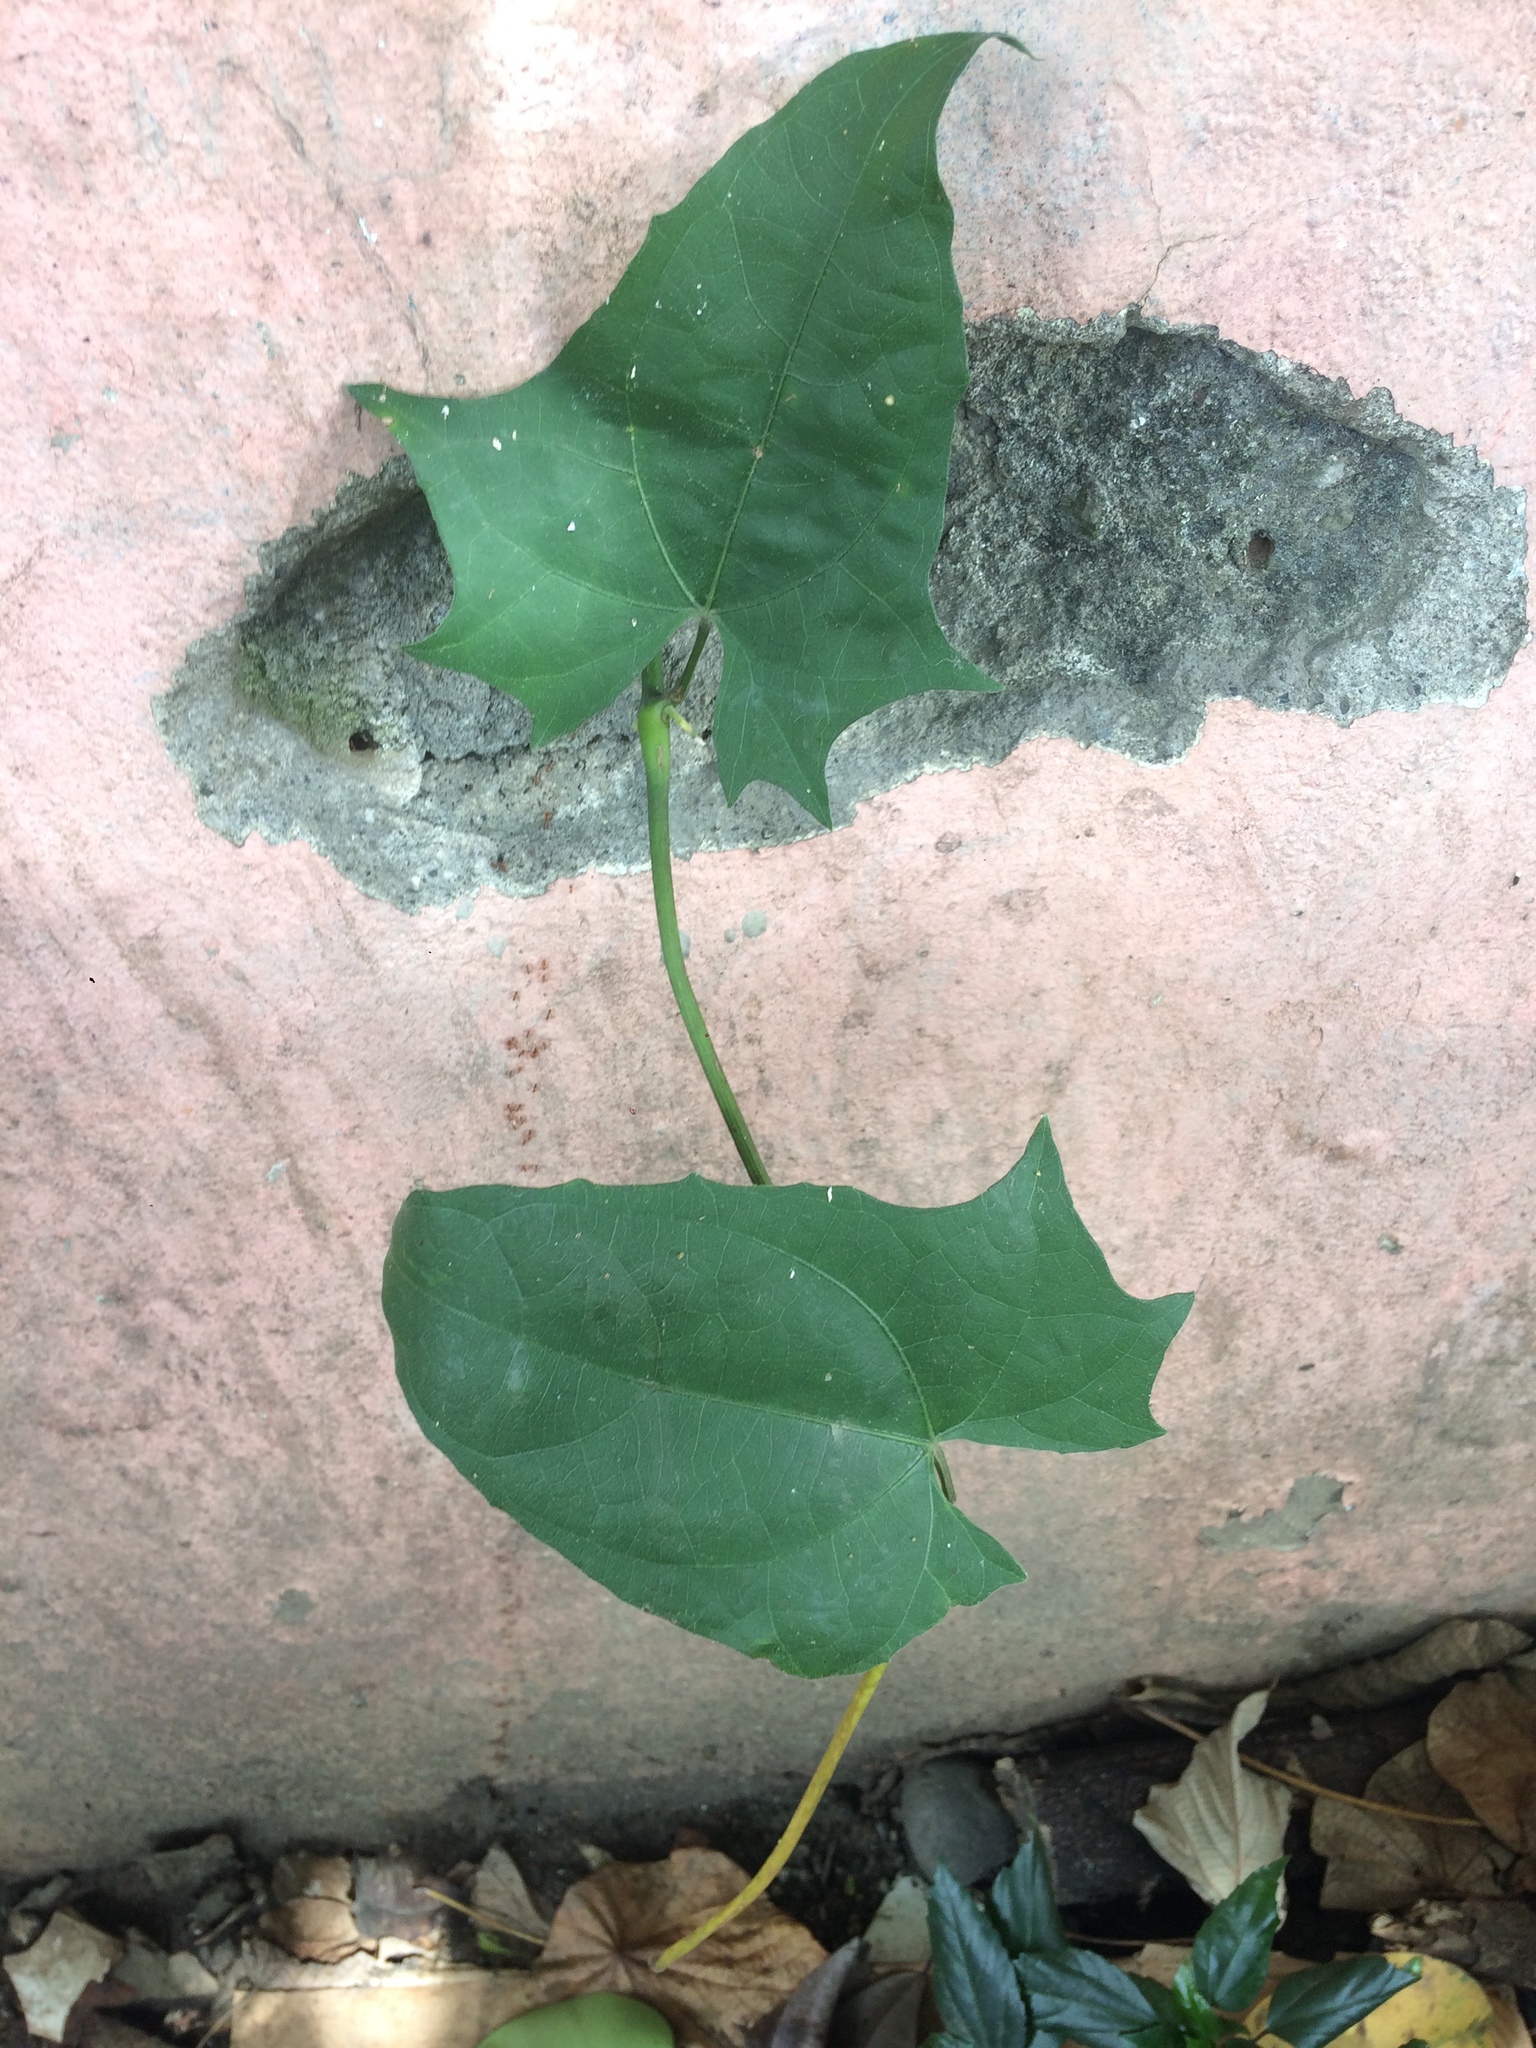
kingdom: Plantae
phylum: Tracheophyta
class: Magnoliopsida
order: Lamiales
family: Acanthaceae
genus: Thunbergia
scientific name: Thunbergia grandiflora
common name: Bengal trumpet
